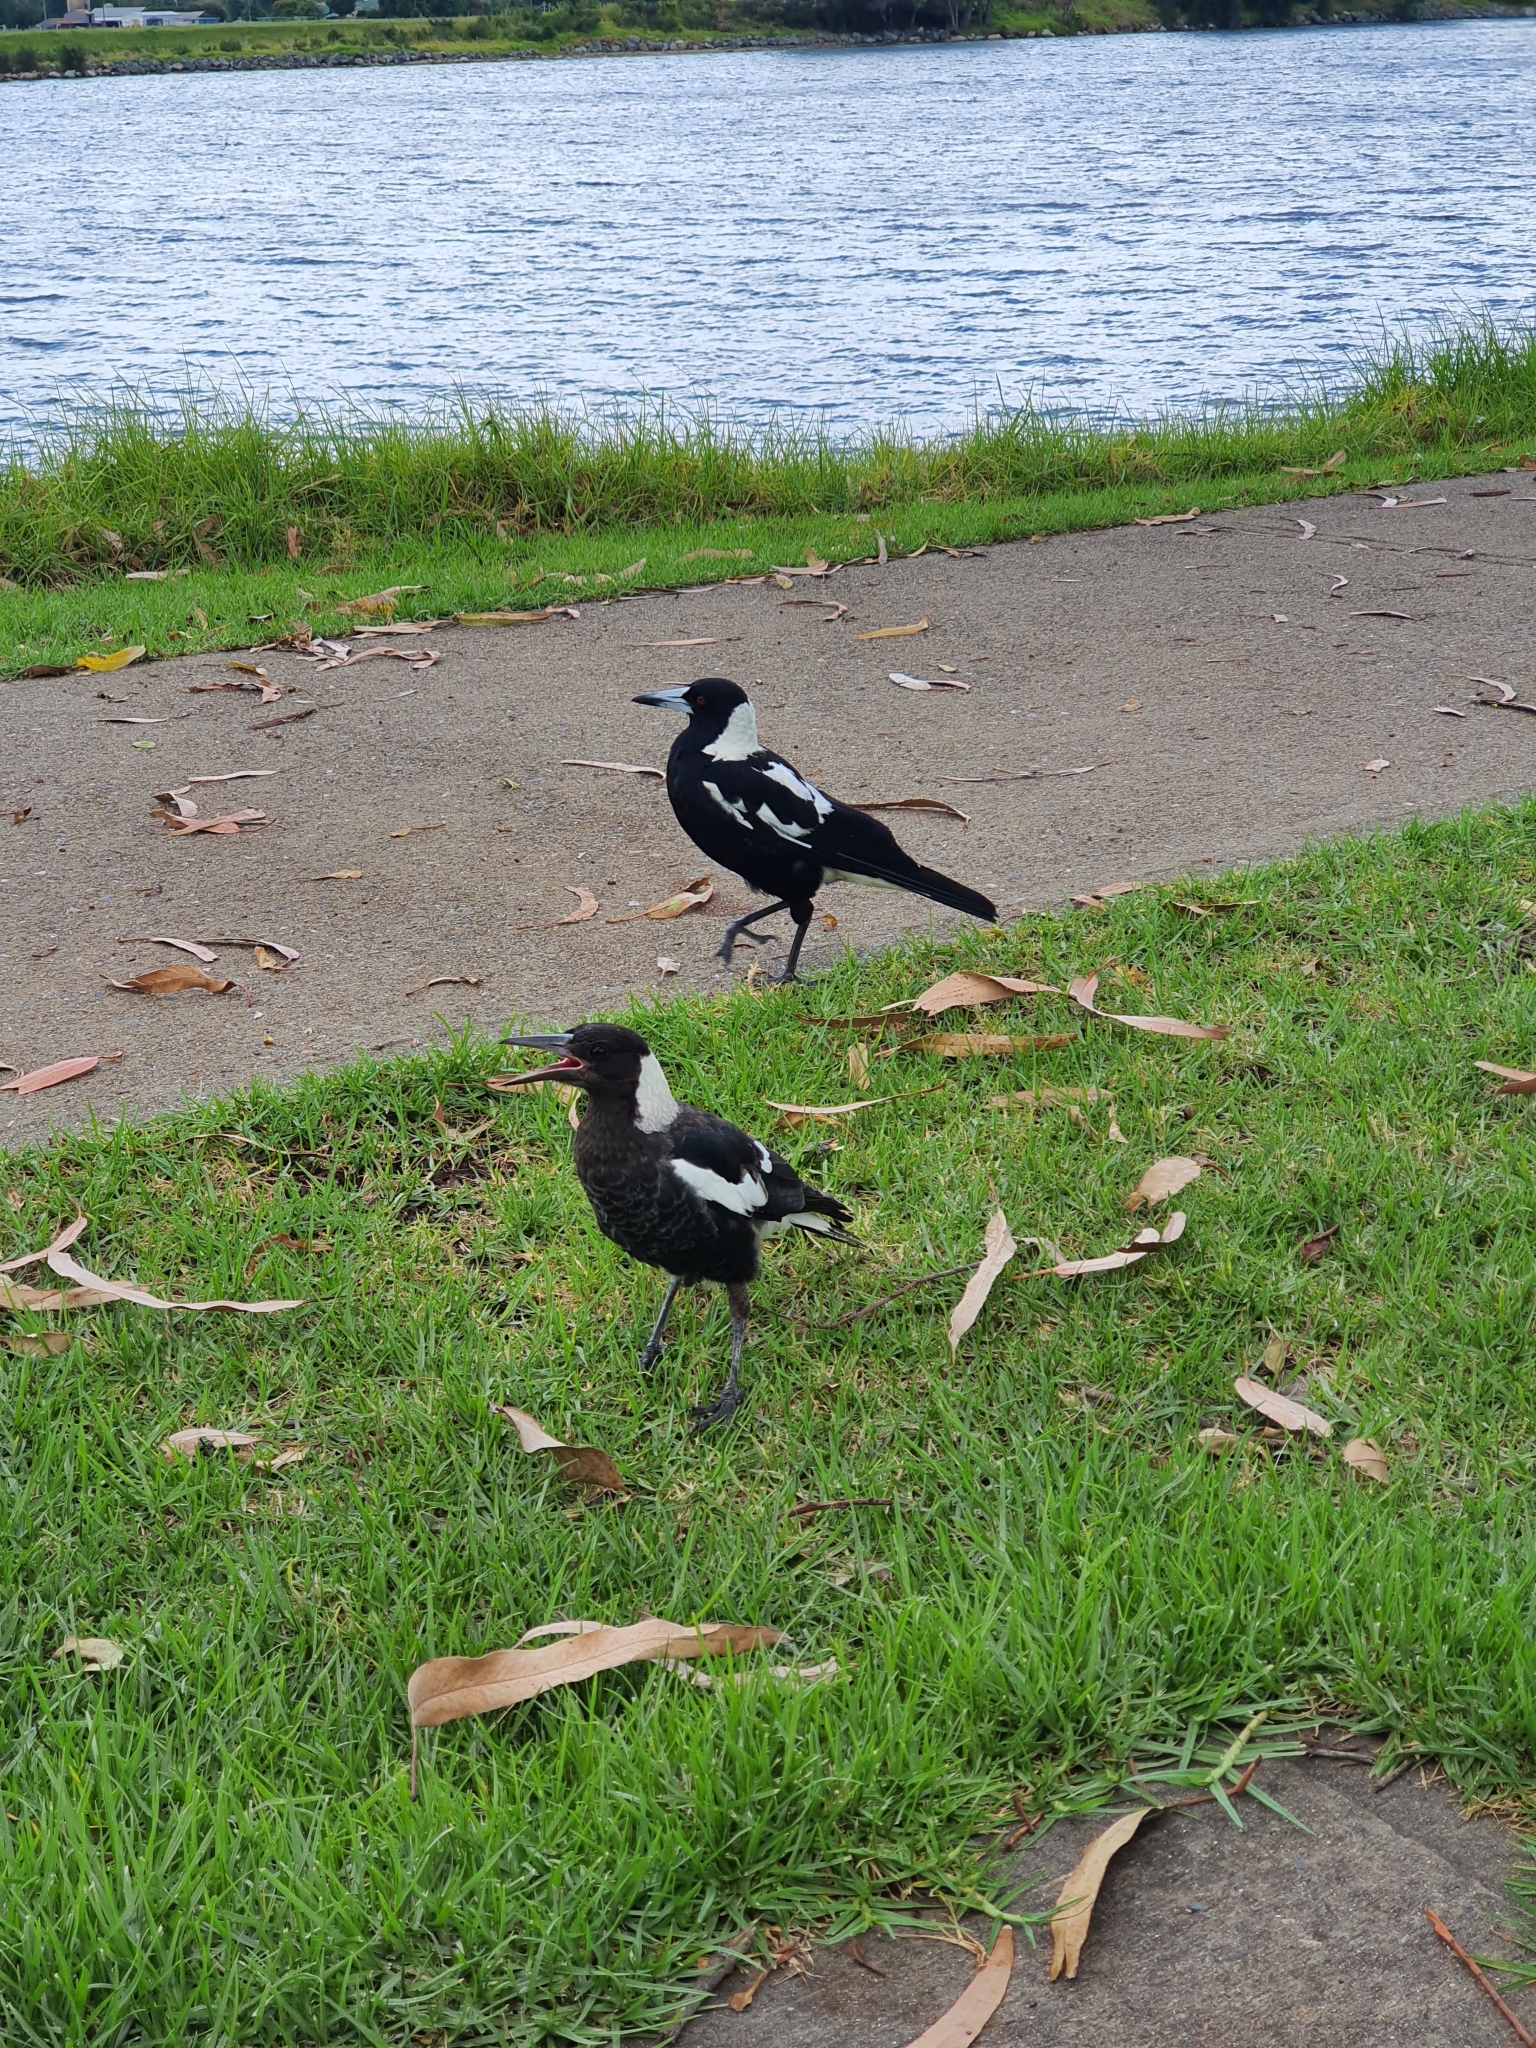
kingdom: Animalia
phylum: Chordata
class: Aves
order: Passeriformes
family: Cracticidae
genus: Gymnorhina
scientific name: Gymnorhina tibicen
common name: Australian magpie
